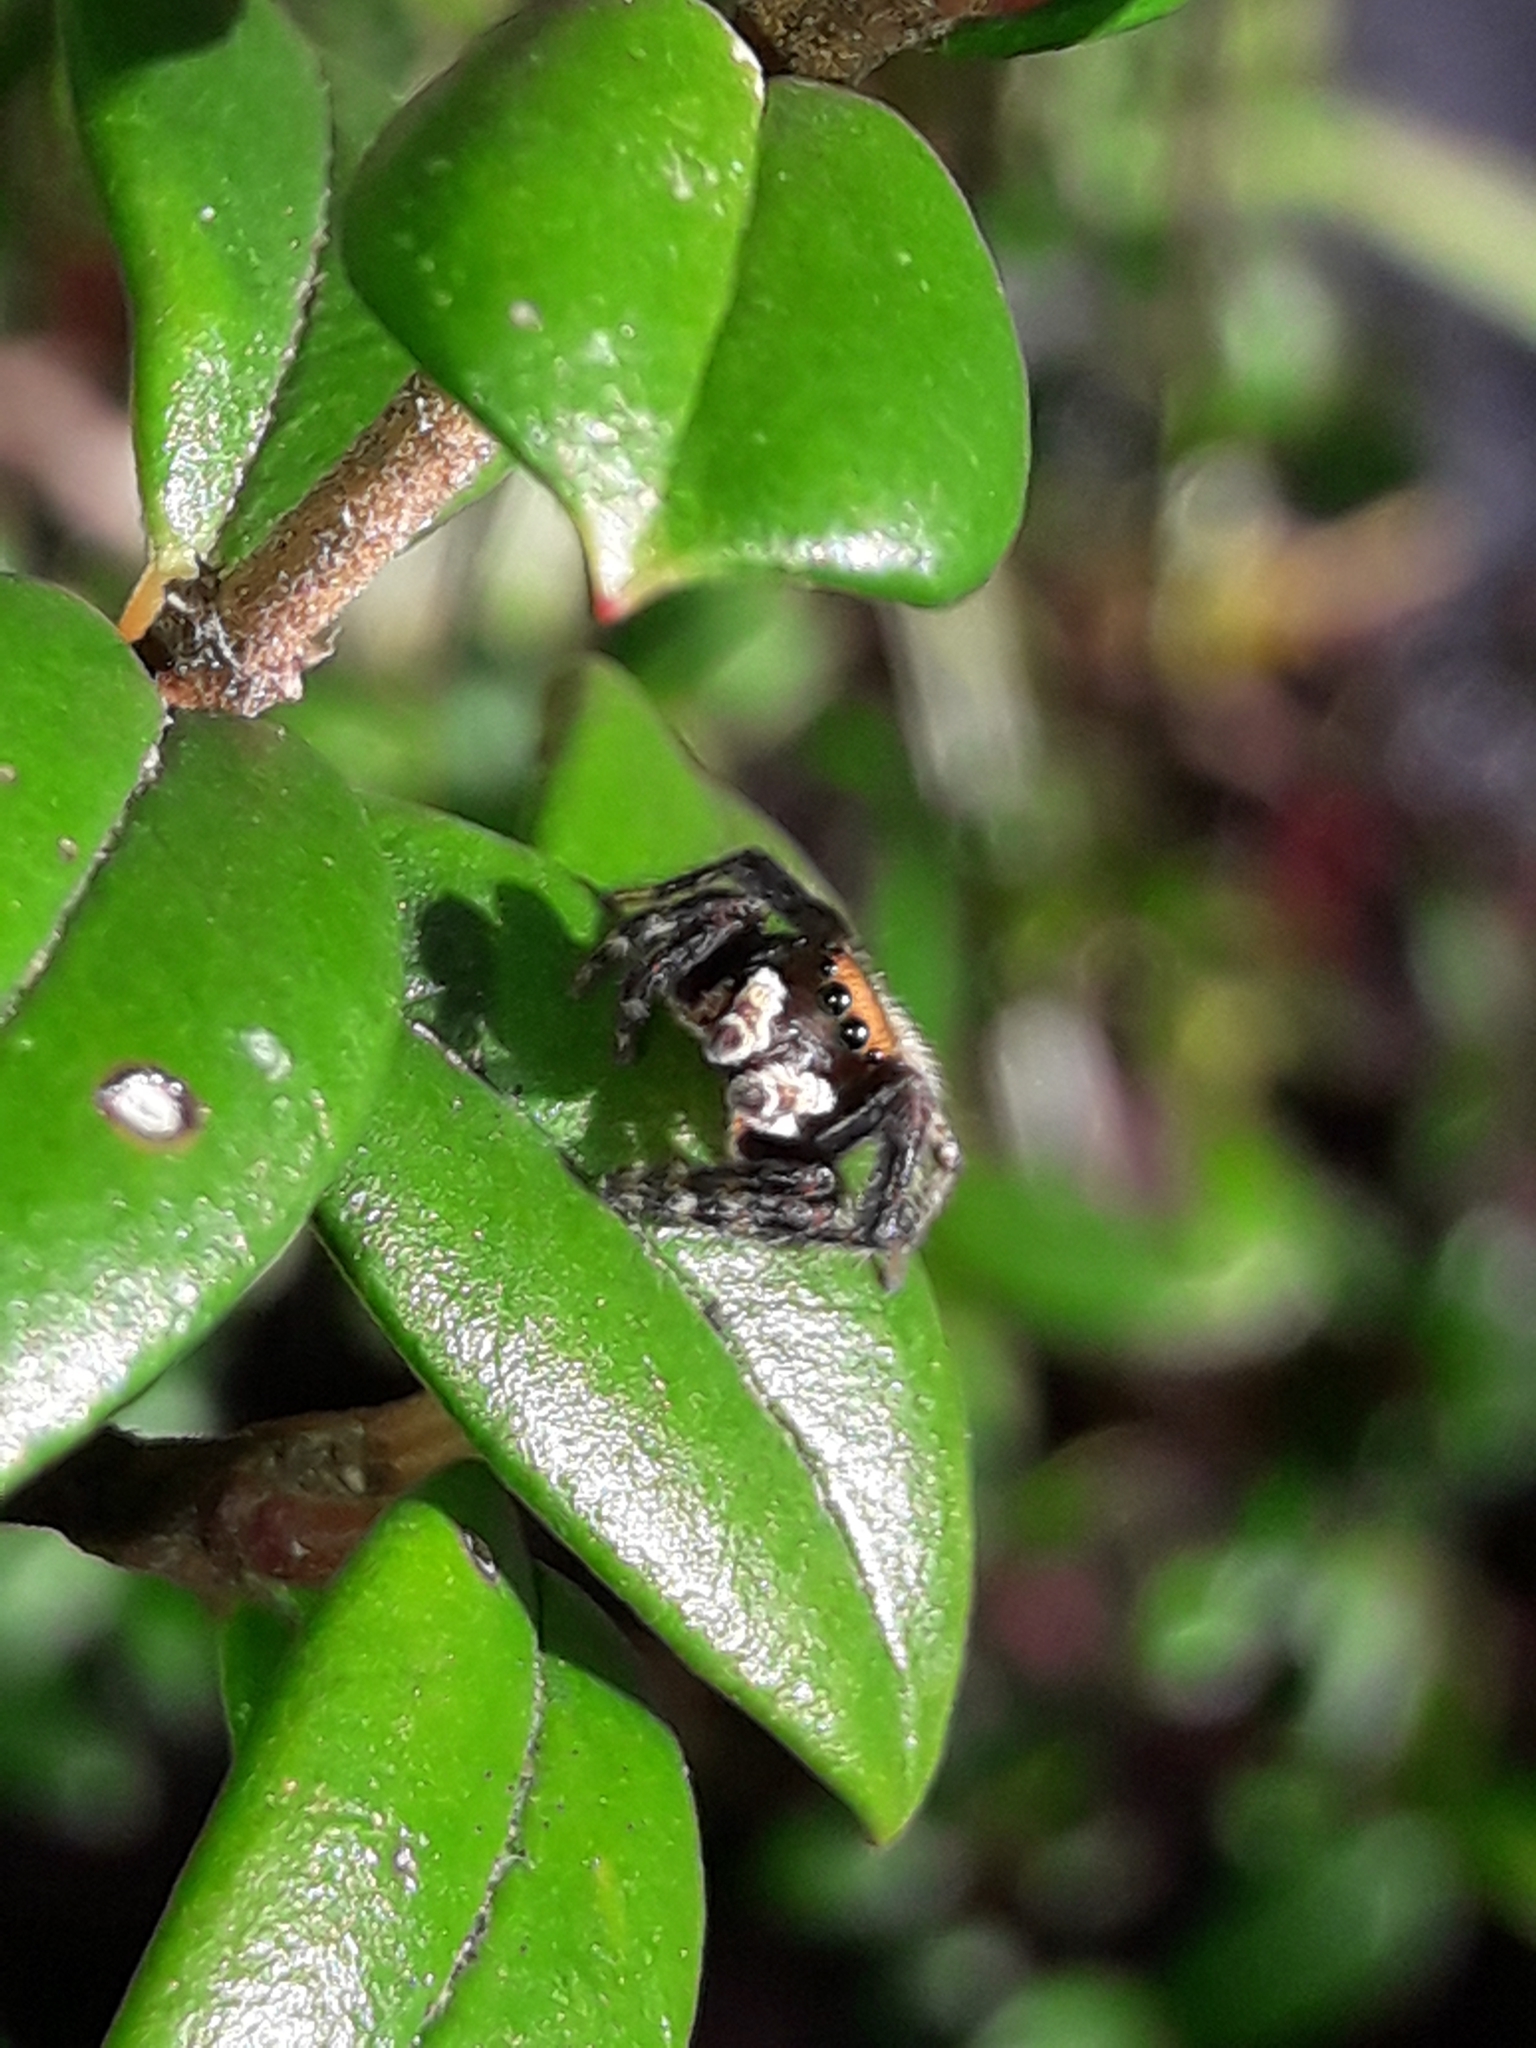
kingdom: Animalia
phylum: Arthropoda
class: Arachnida
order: Araneae
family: Salticidae
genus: Maratus
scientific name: Maratus griseus
